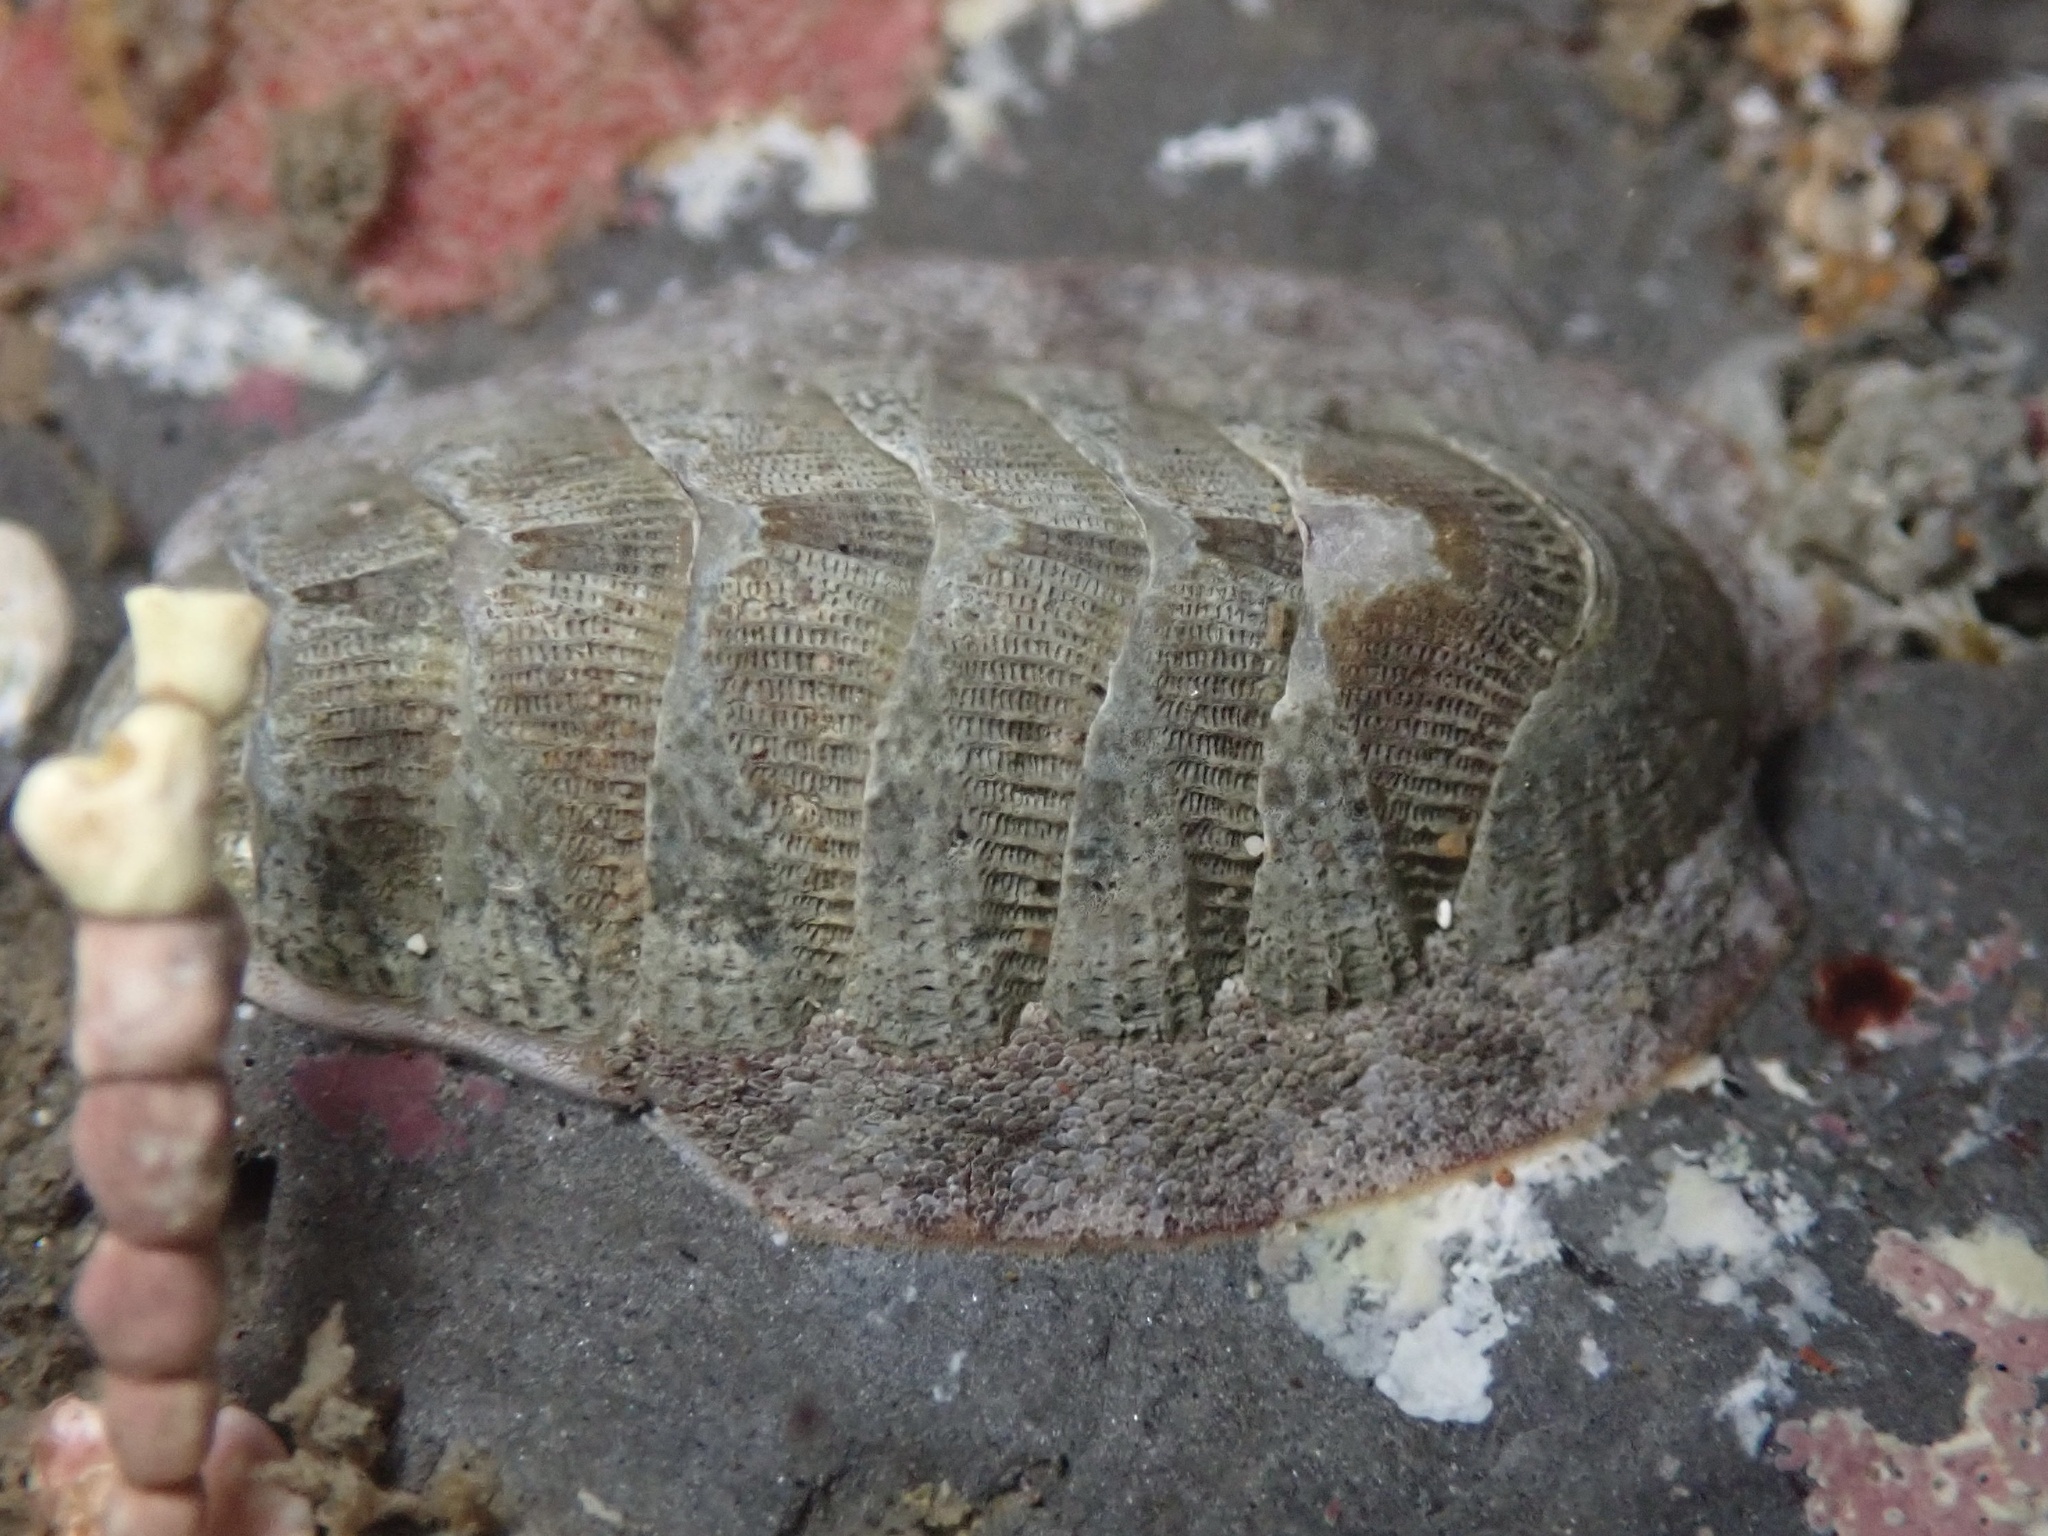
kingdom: Animalia
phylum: Mollusca
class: Polyplacophora
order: Chitonida
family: Ischnochitonidae
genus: Lepidozona
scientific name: Lepidozona cooperi
